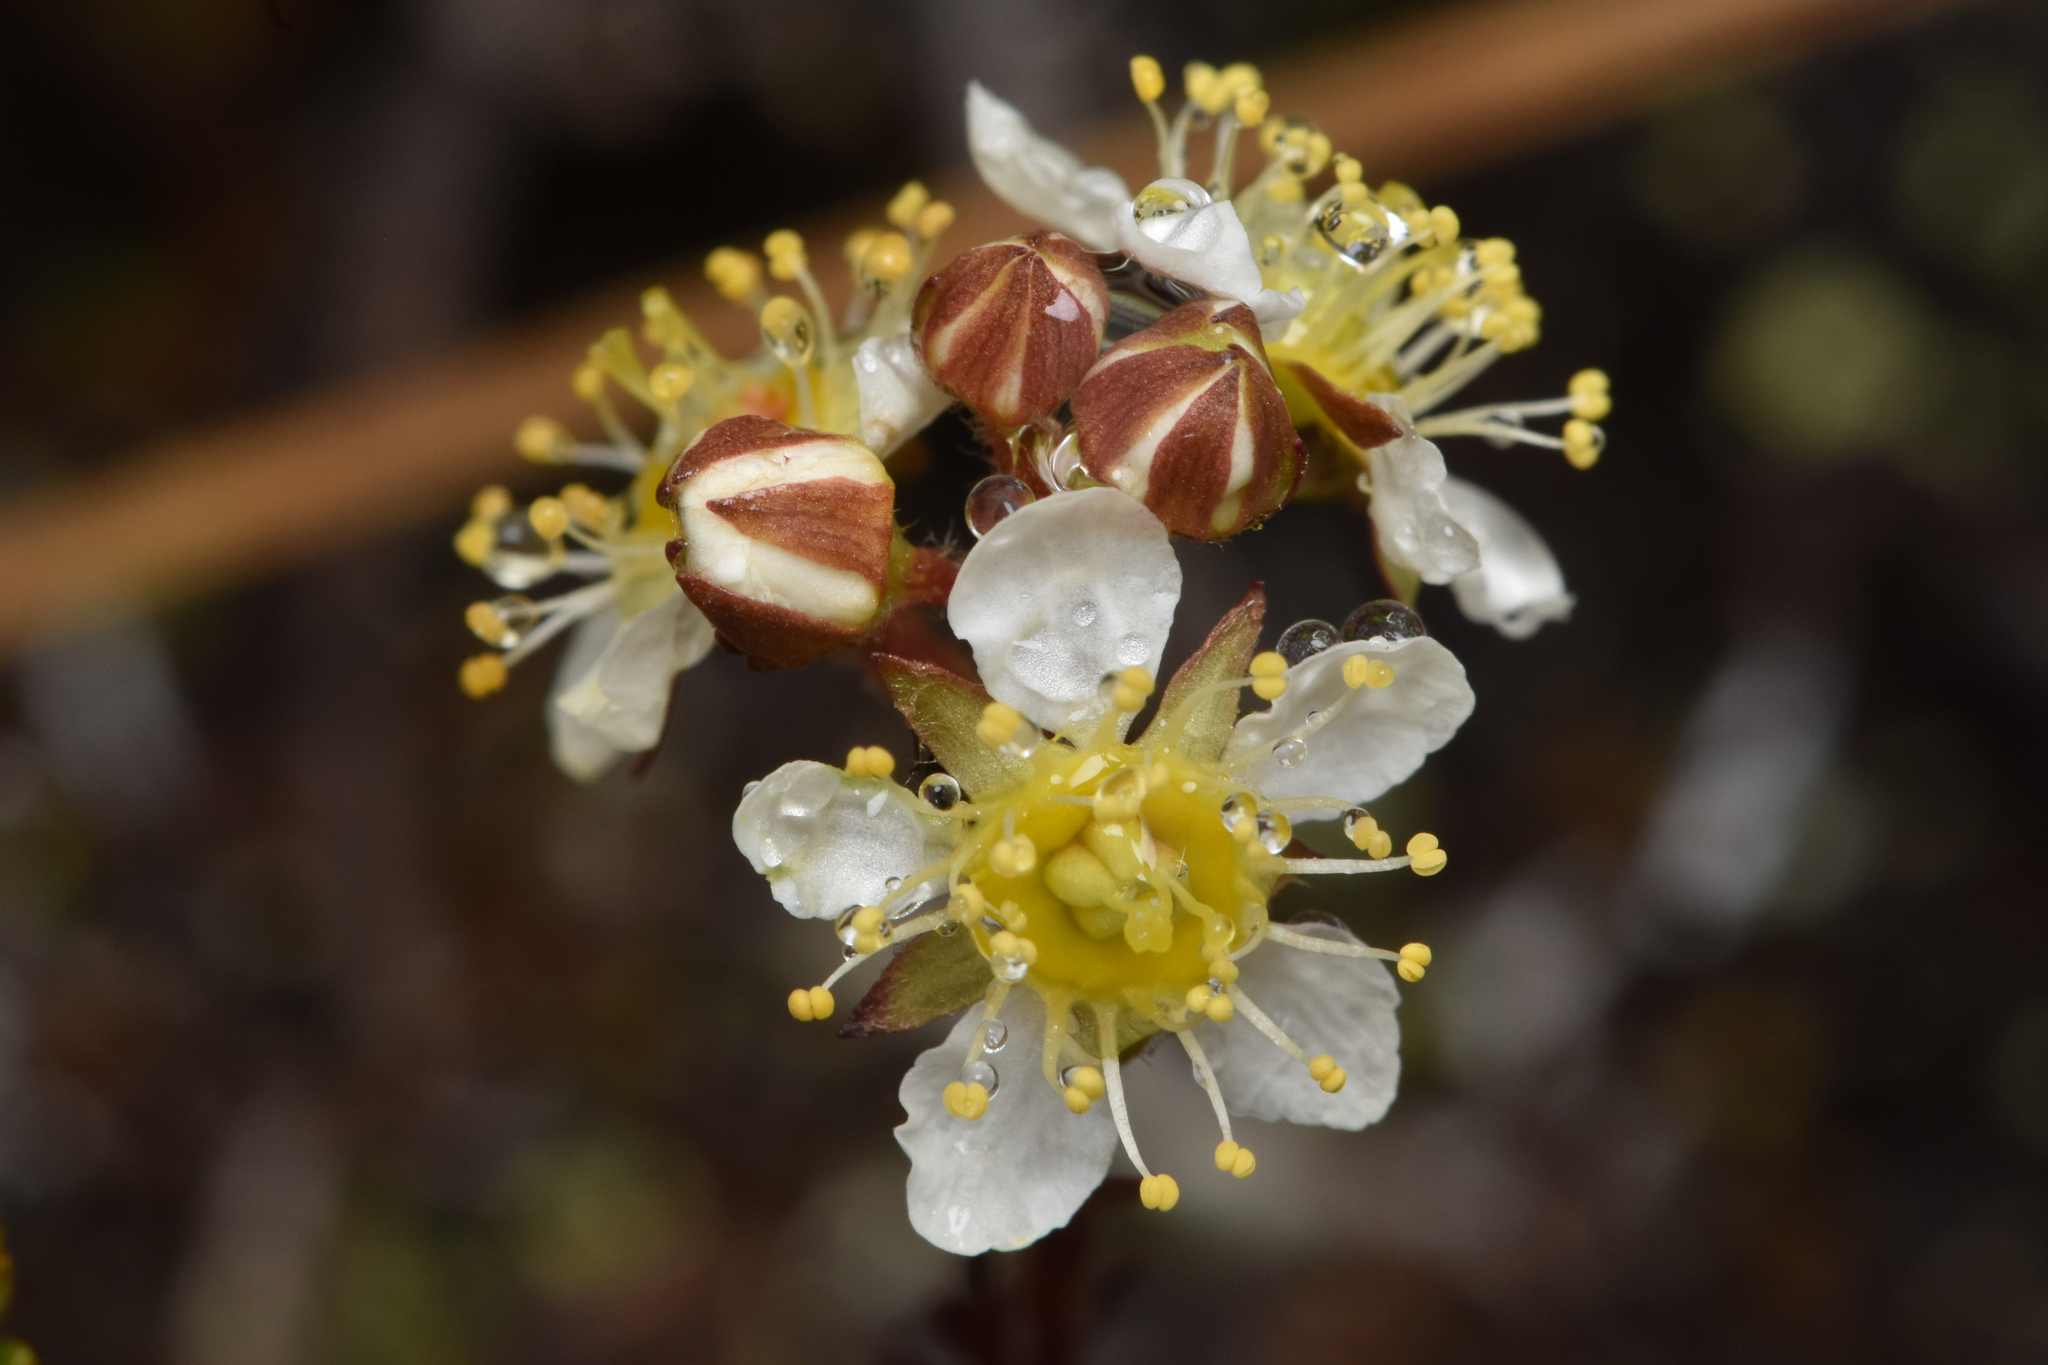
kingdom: Plantae
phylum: Tracheophyta
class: Magnoliopsida
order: Rosales
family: Rosaceae
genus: Luetkea
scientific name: Luetkea pectinata
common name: Partridgefoot
